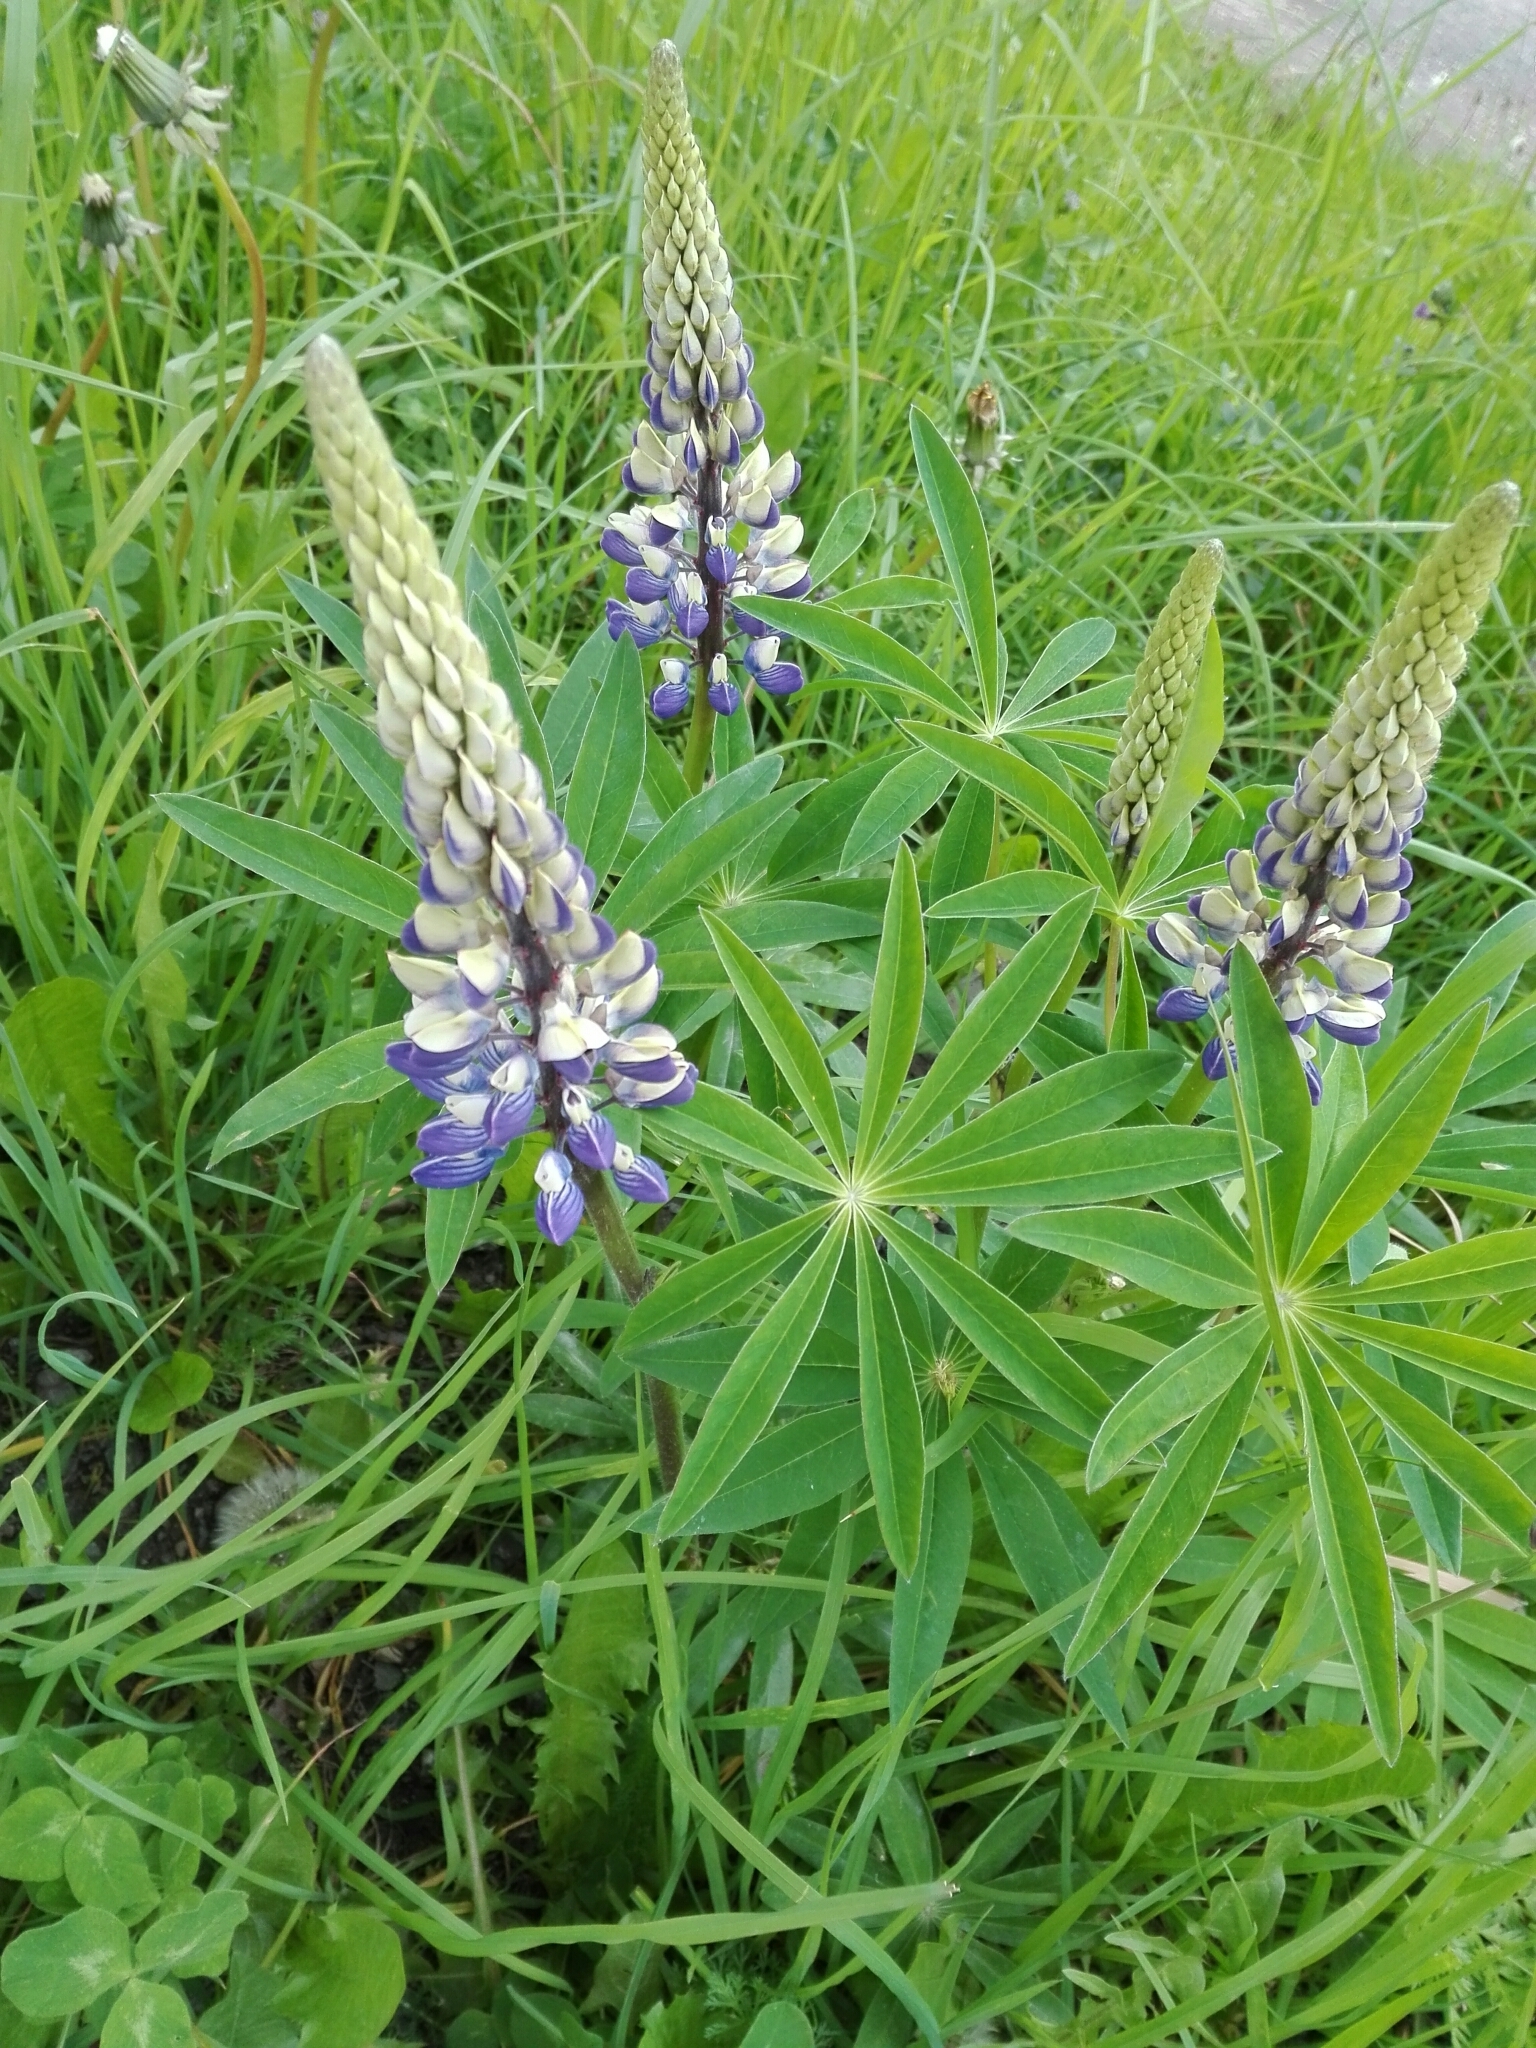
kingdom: Plantae
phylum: Tracheophyta
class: Magnoliopsida
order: Fabales
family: Fabaceae
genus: Lupinus
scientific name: Lupinus polyphyllus
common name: Garden lupin
